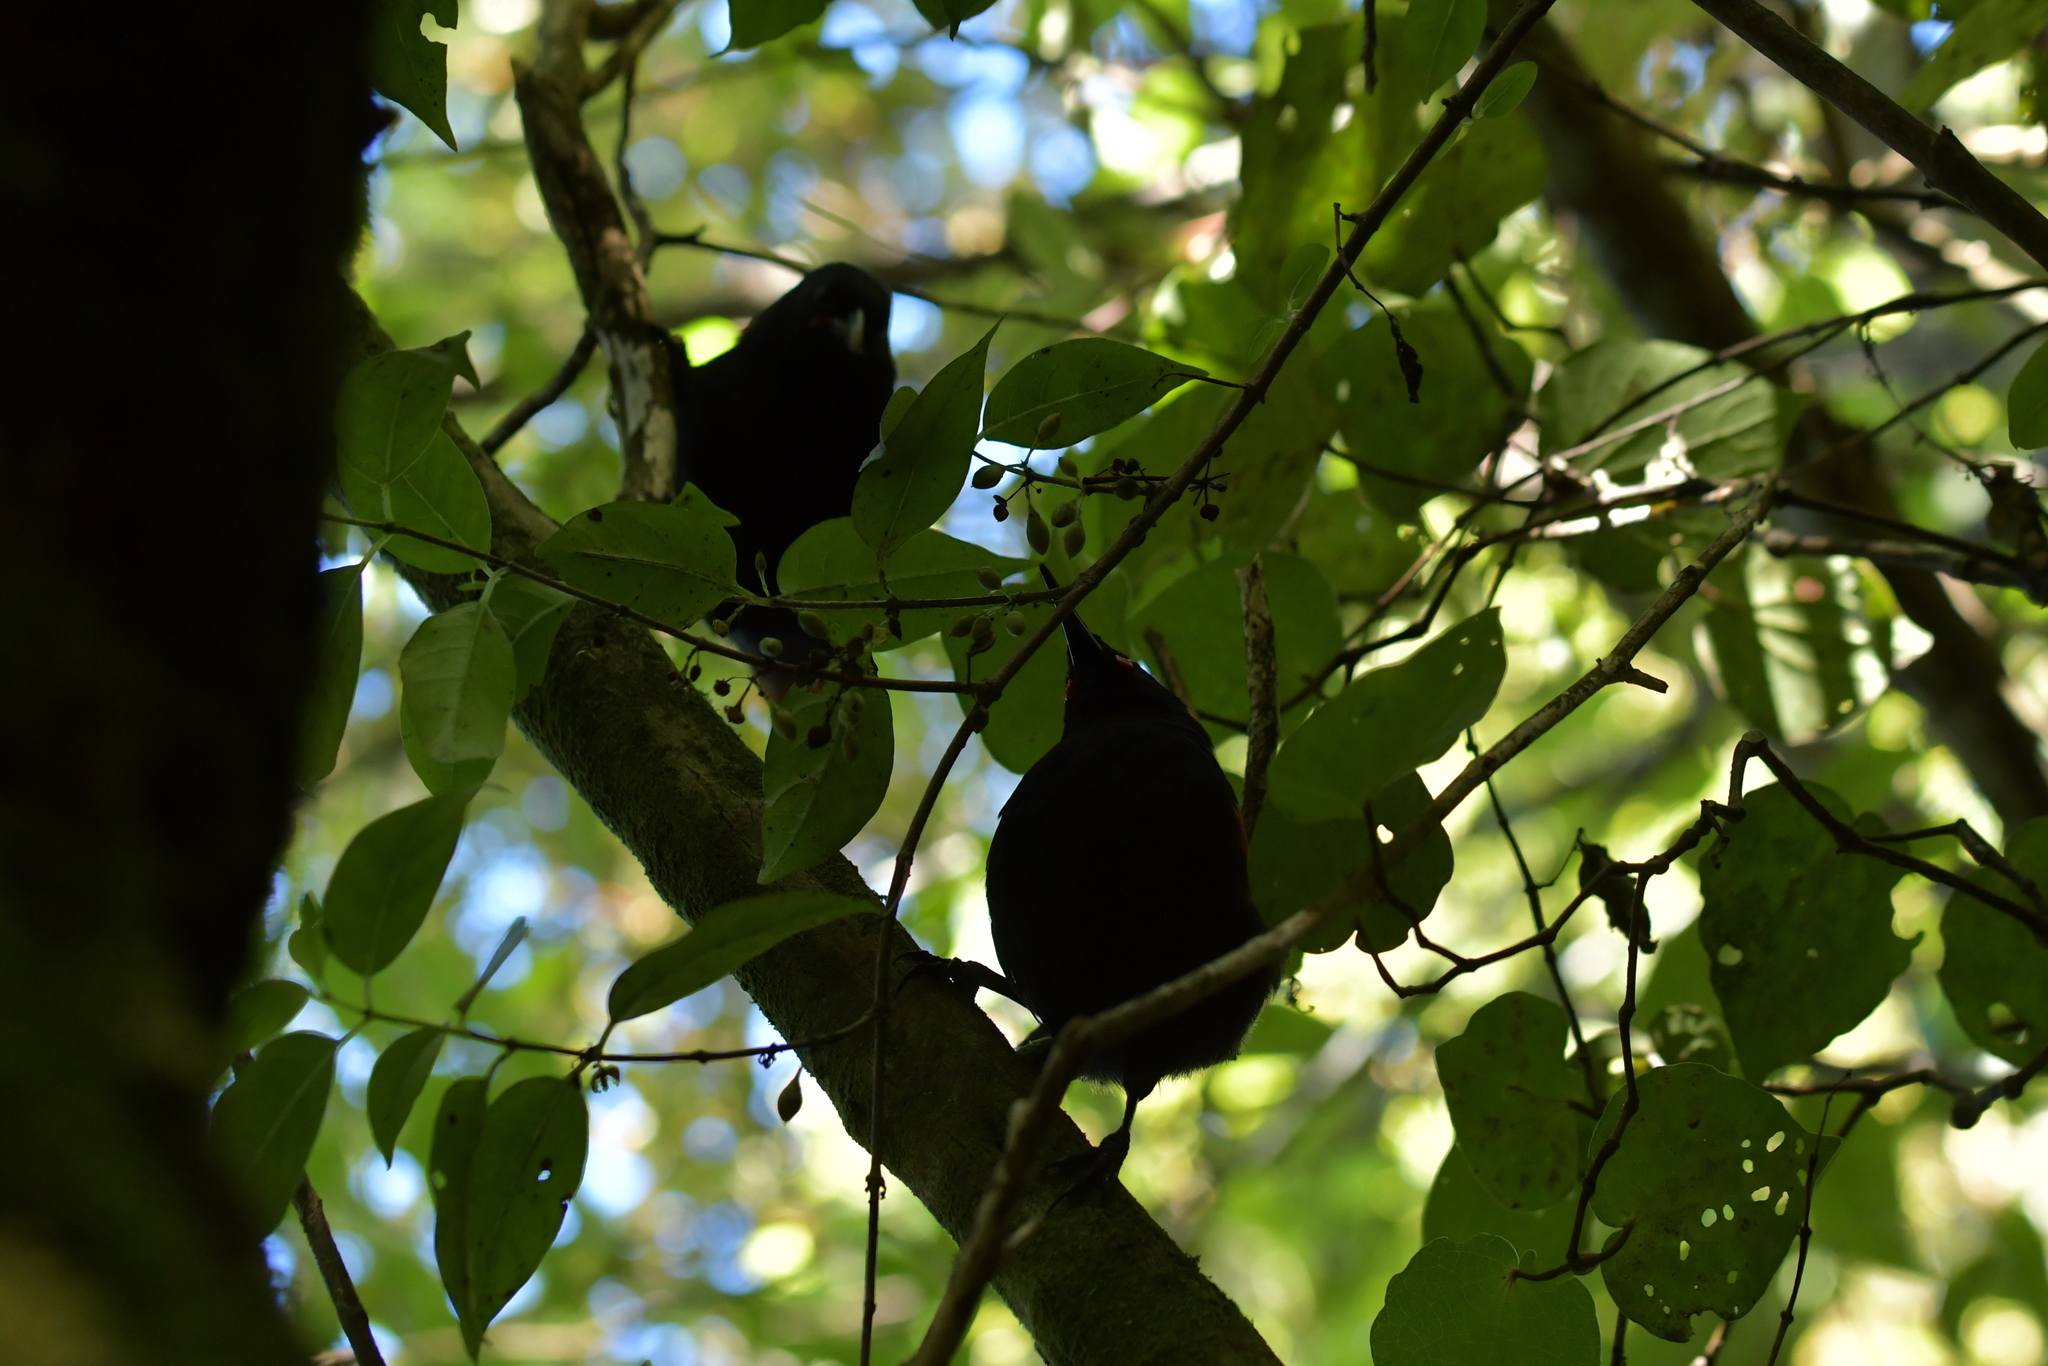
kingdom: Animalia
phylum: Chordata
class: Aves
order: Passeriformes
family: Callaeatidae
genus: Philesturnus
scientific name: Philesturnus carunculatus
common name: South island saddleback
